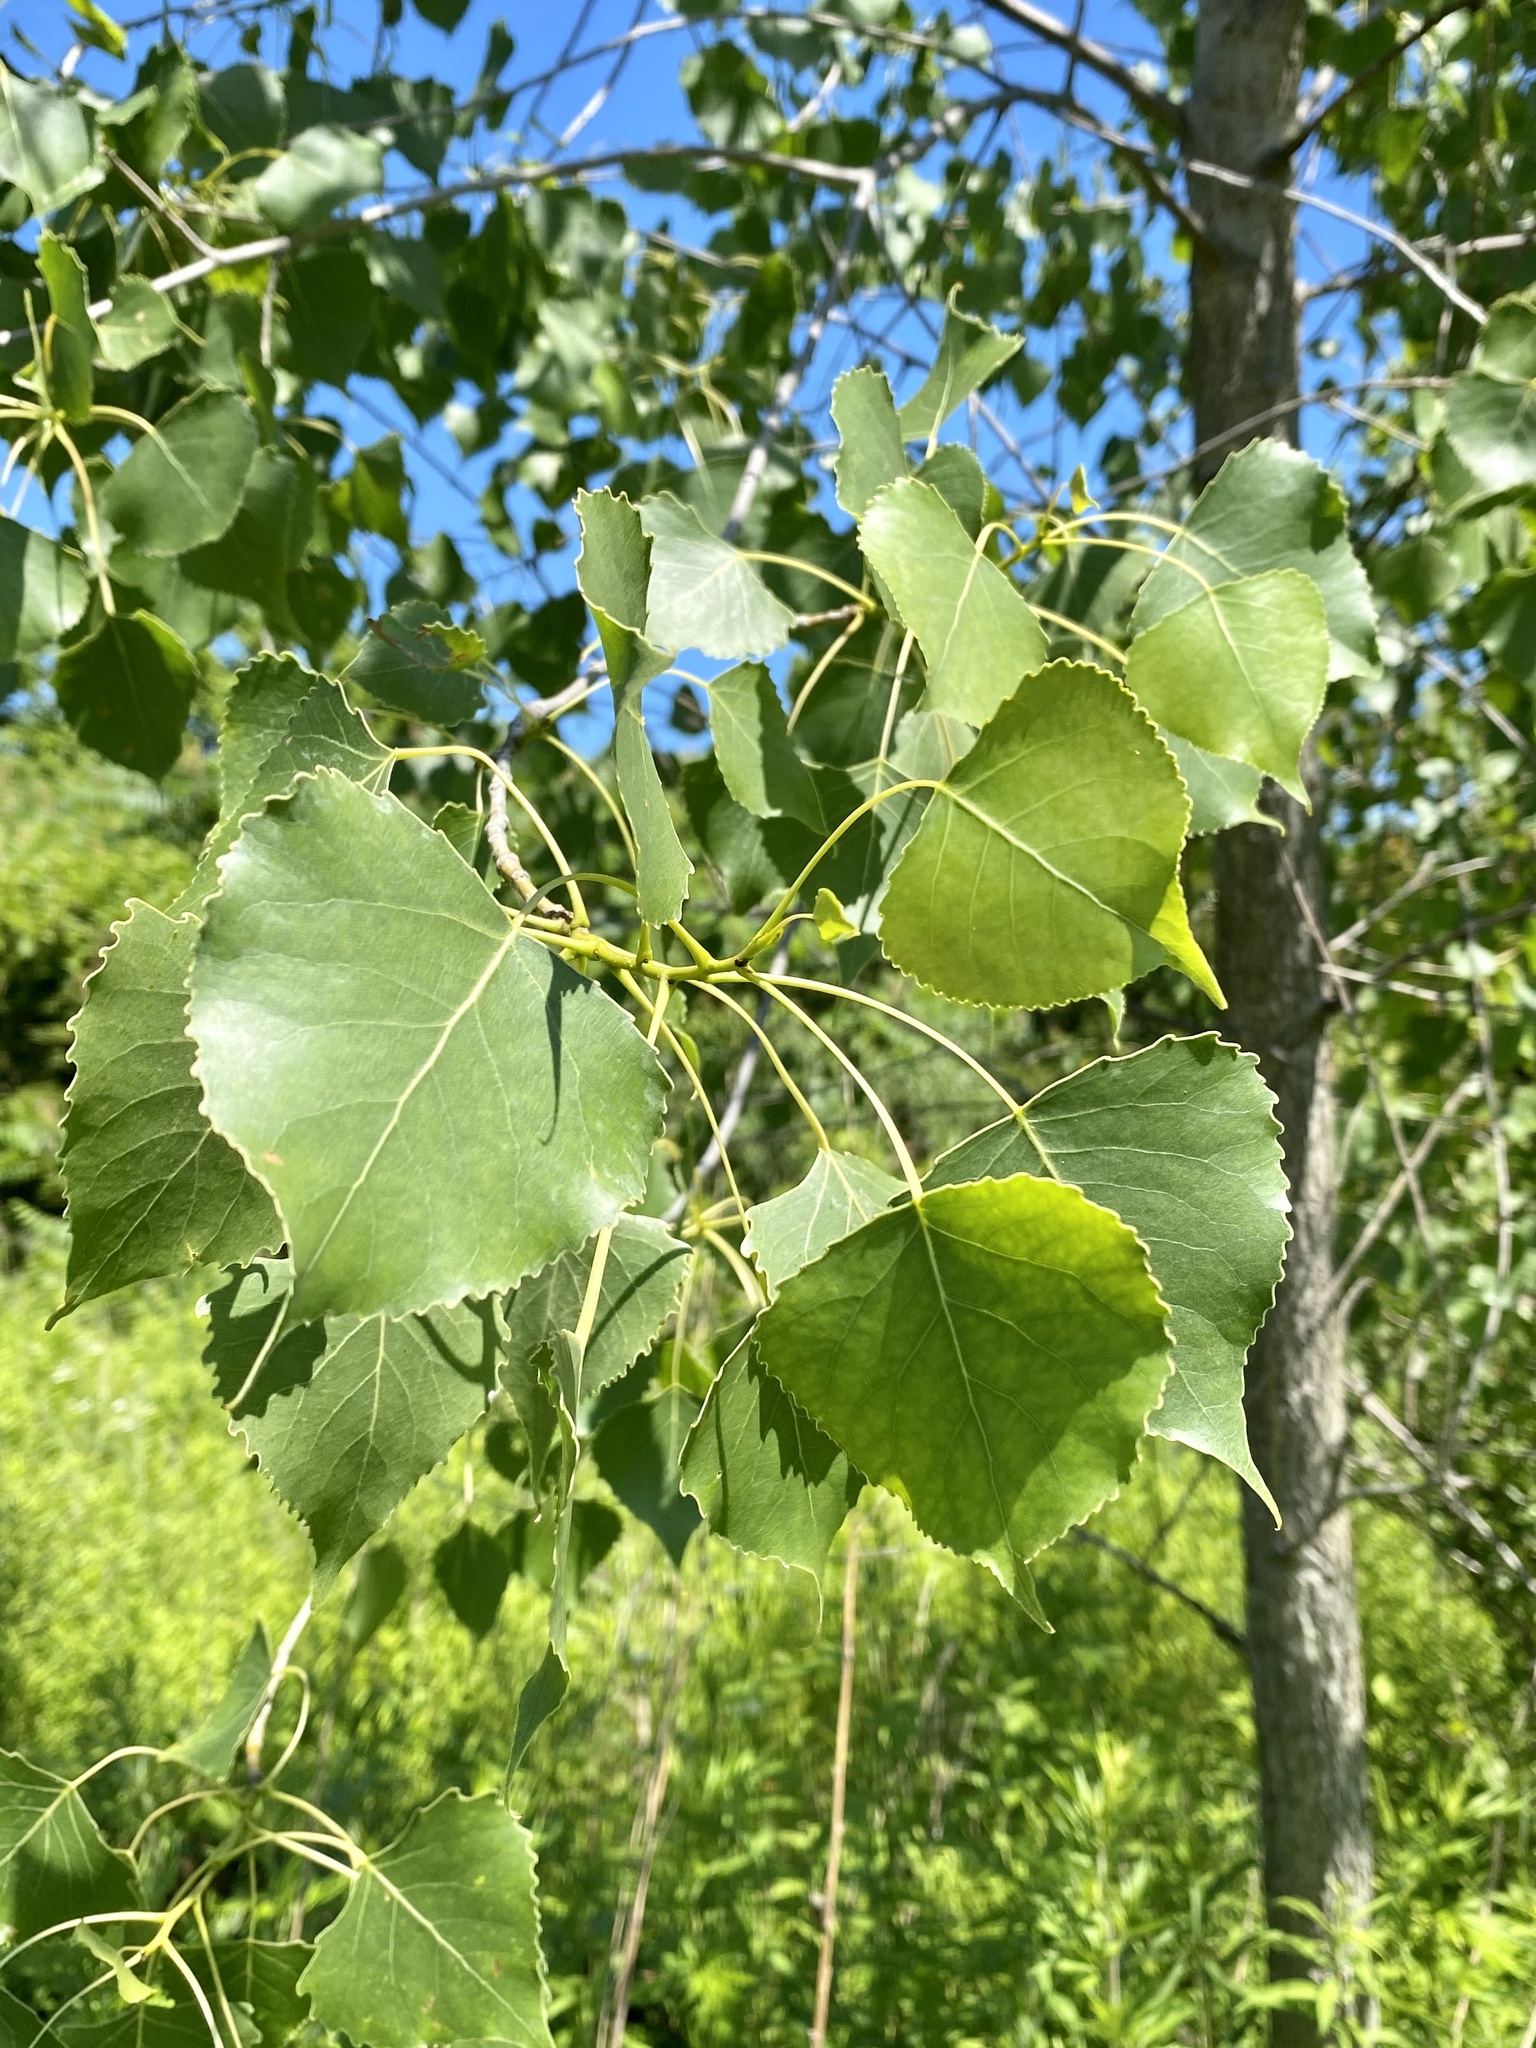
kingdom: Plantae
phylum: Tracheophyta
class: Magnoliopsida
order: Malpighiales
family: Salicaceae
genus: Populus
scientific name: Populus deltoides
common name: Eastern cottonwood
